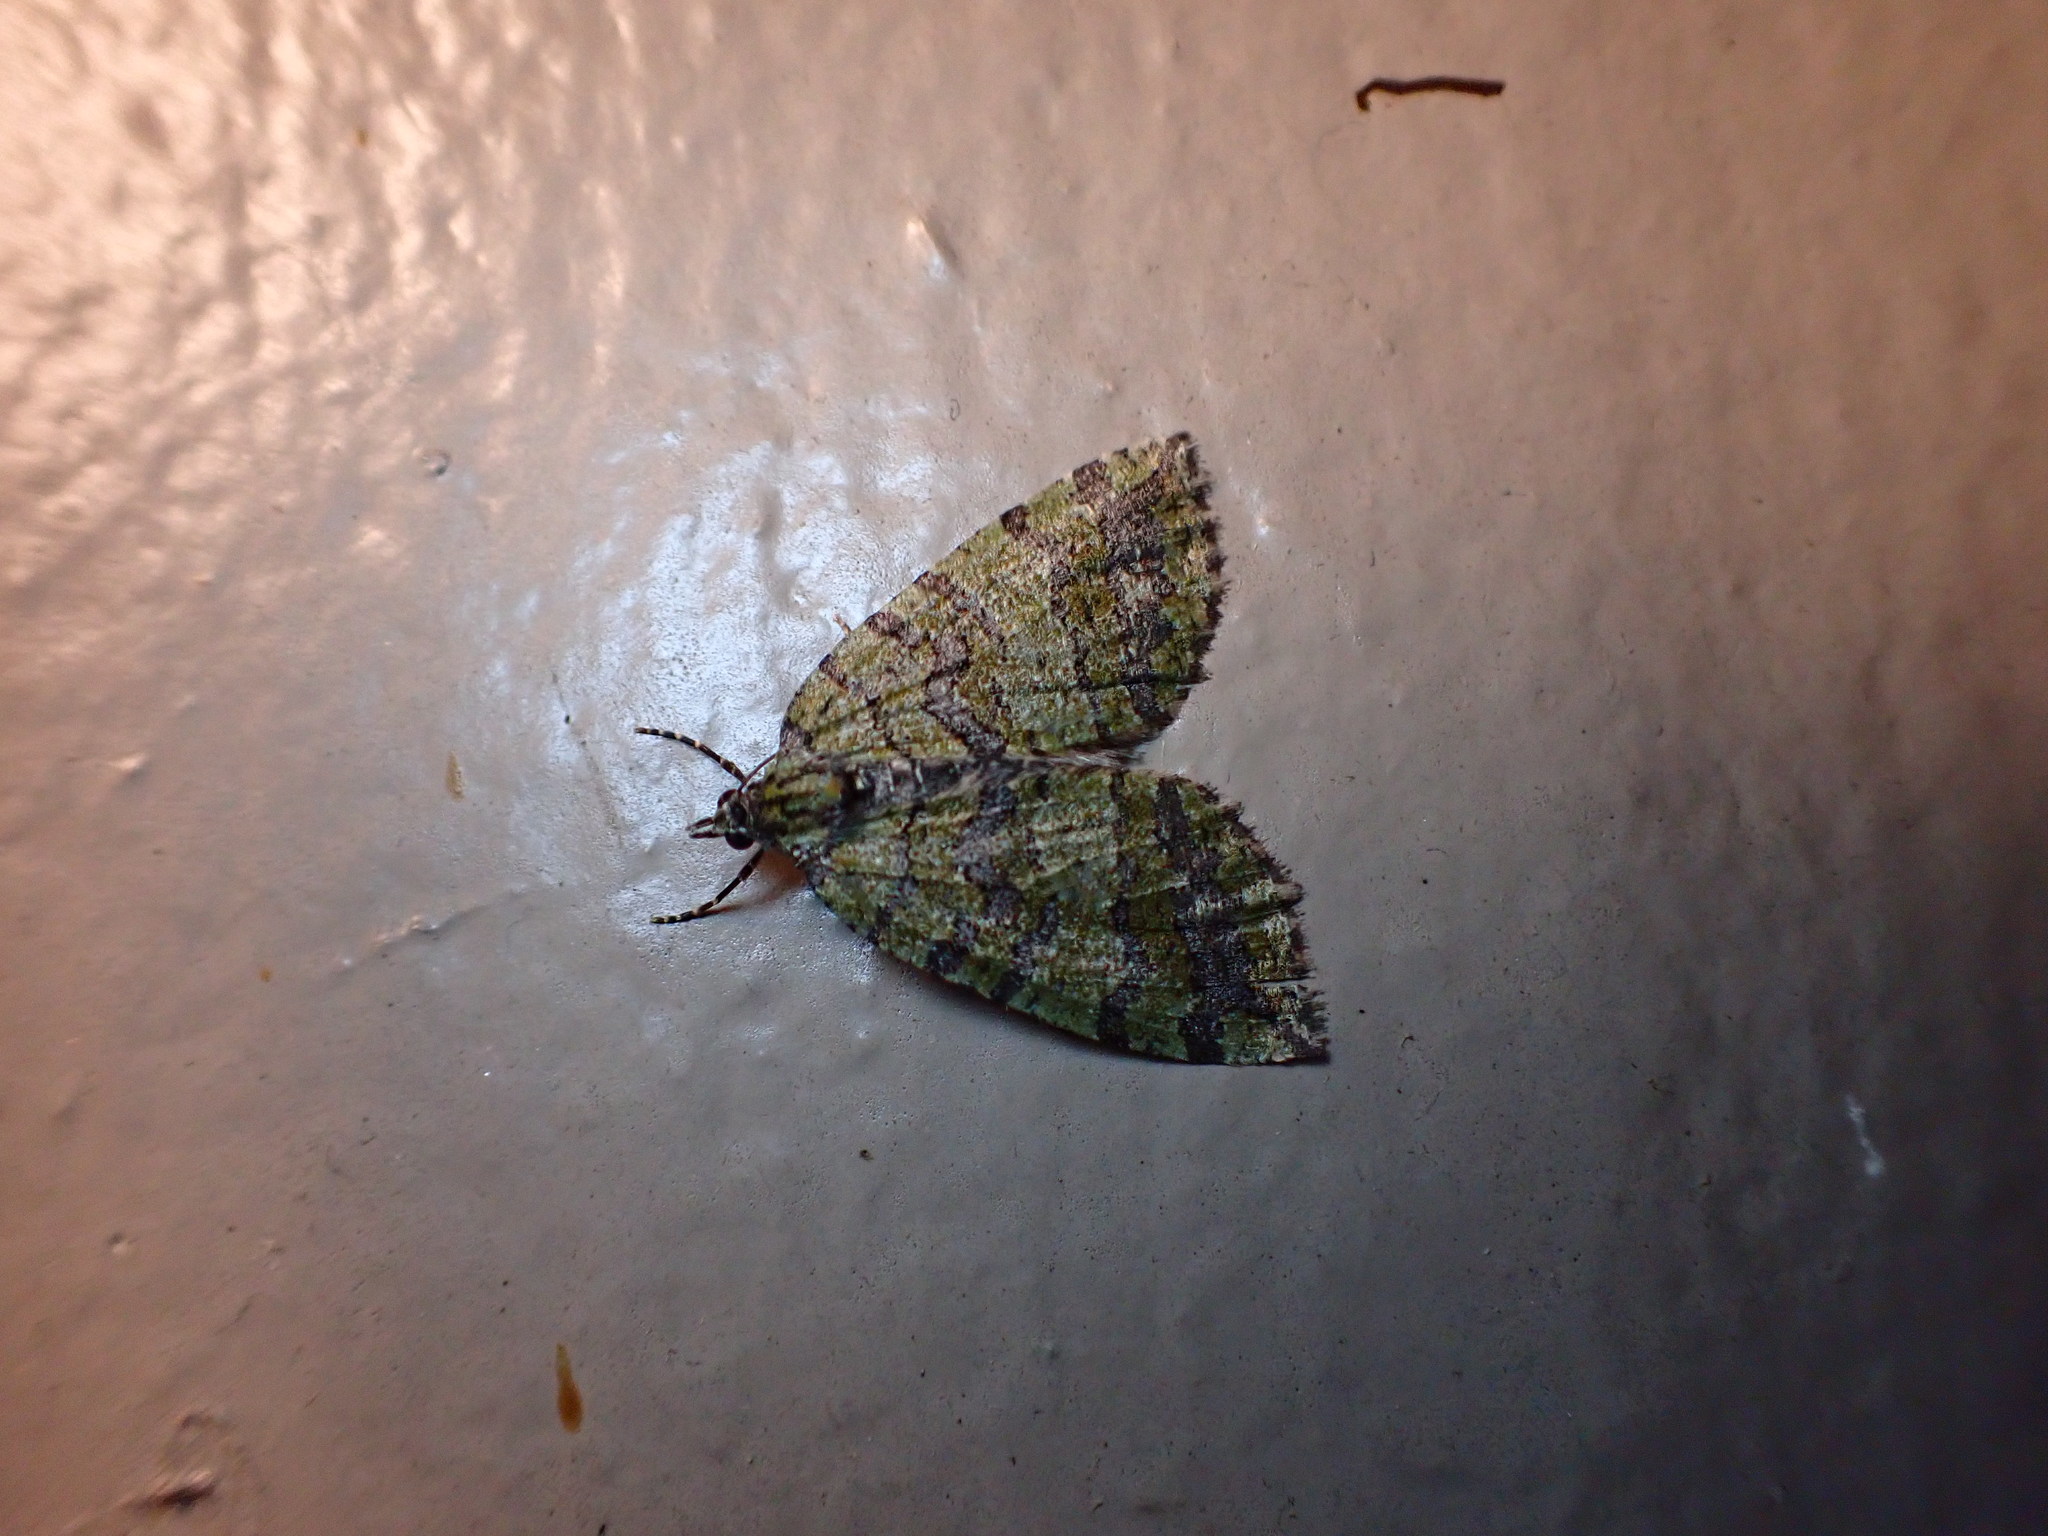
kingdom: Animalia
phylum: Arthropoda
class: Insecta
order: Lepidoptera
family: Geometridae
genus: Hydriomena
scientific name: Hydriomena nubilofasciata
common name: Oak winter highflier moth
